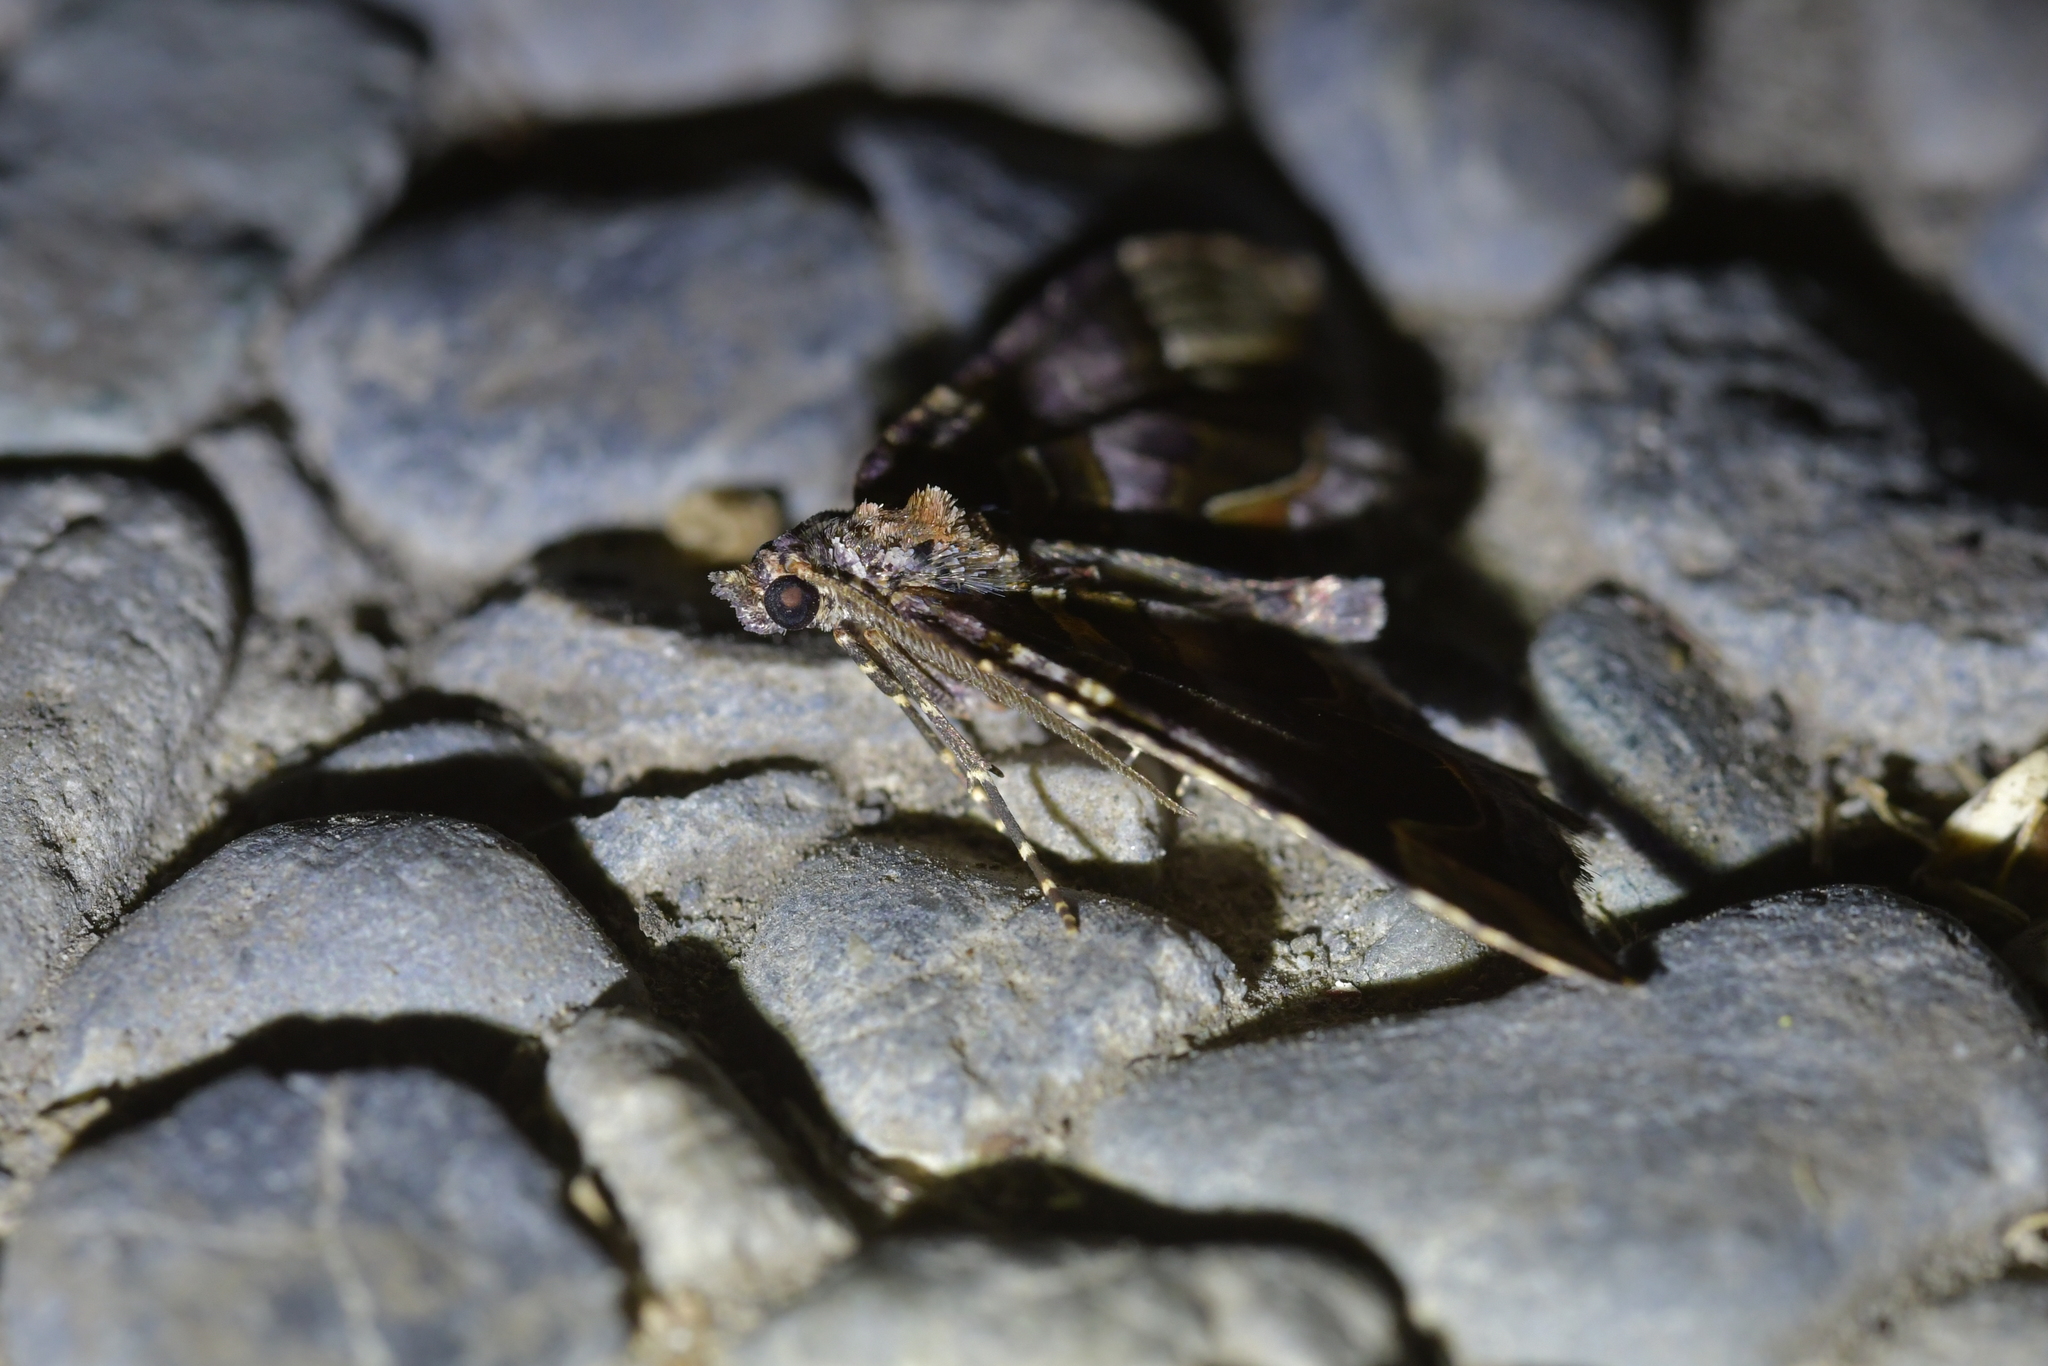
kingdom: Animalia
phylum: Arthropoda
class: Insecta
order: Lepidoptera
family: Geometridae
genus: Asaphodes
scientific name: Asaphodes chlamydota
